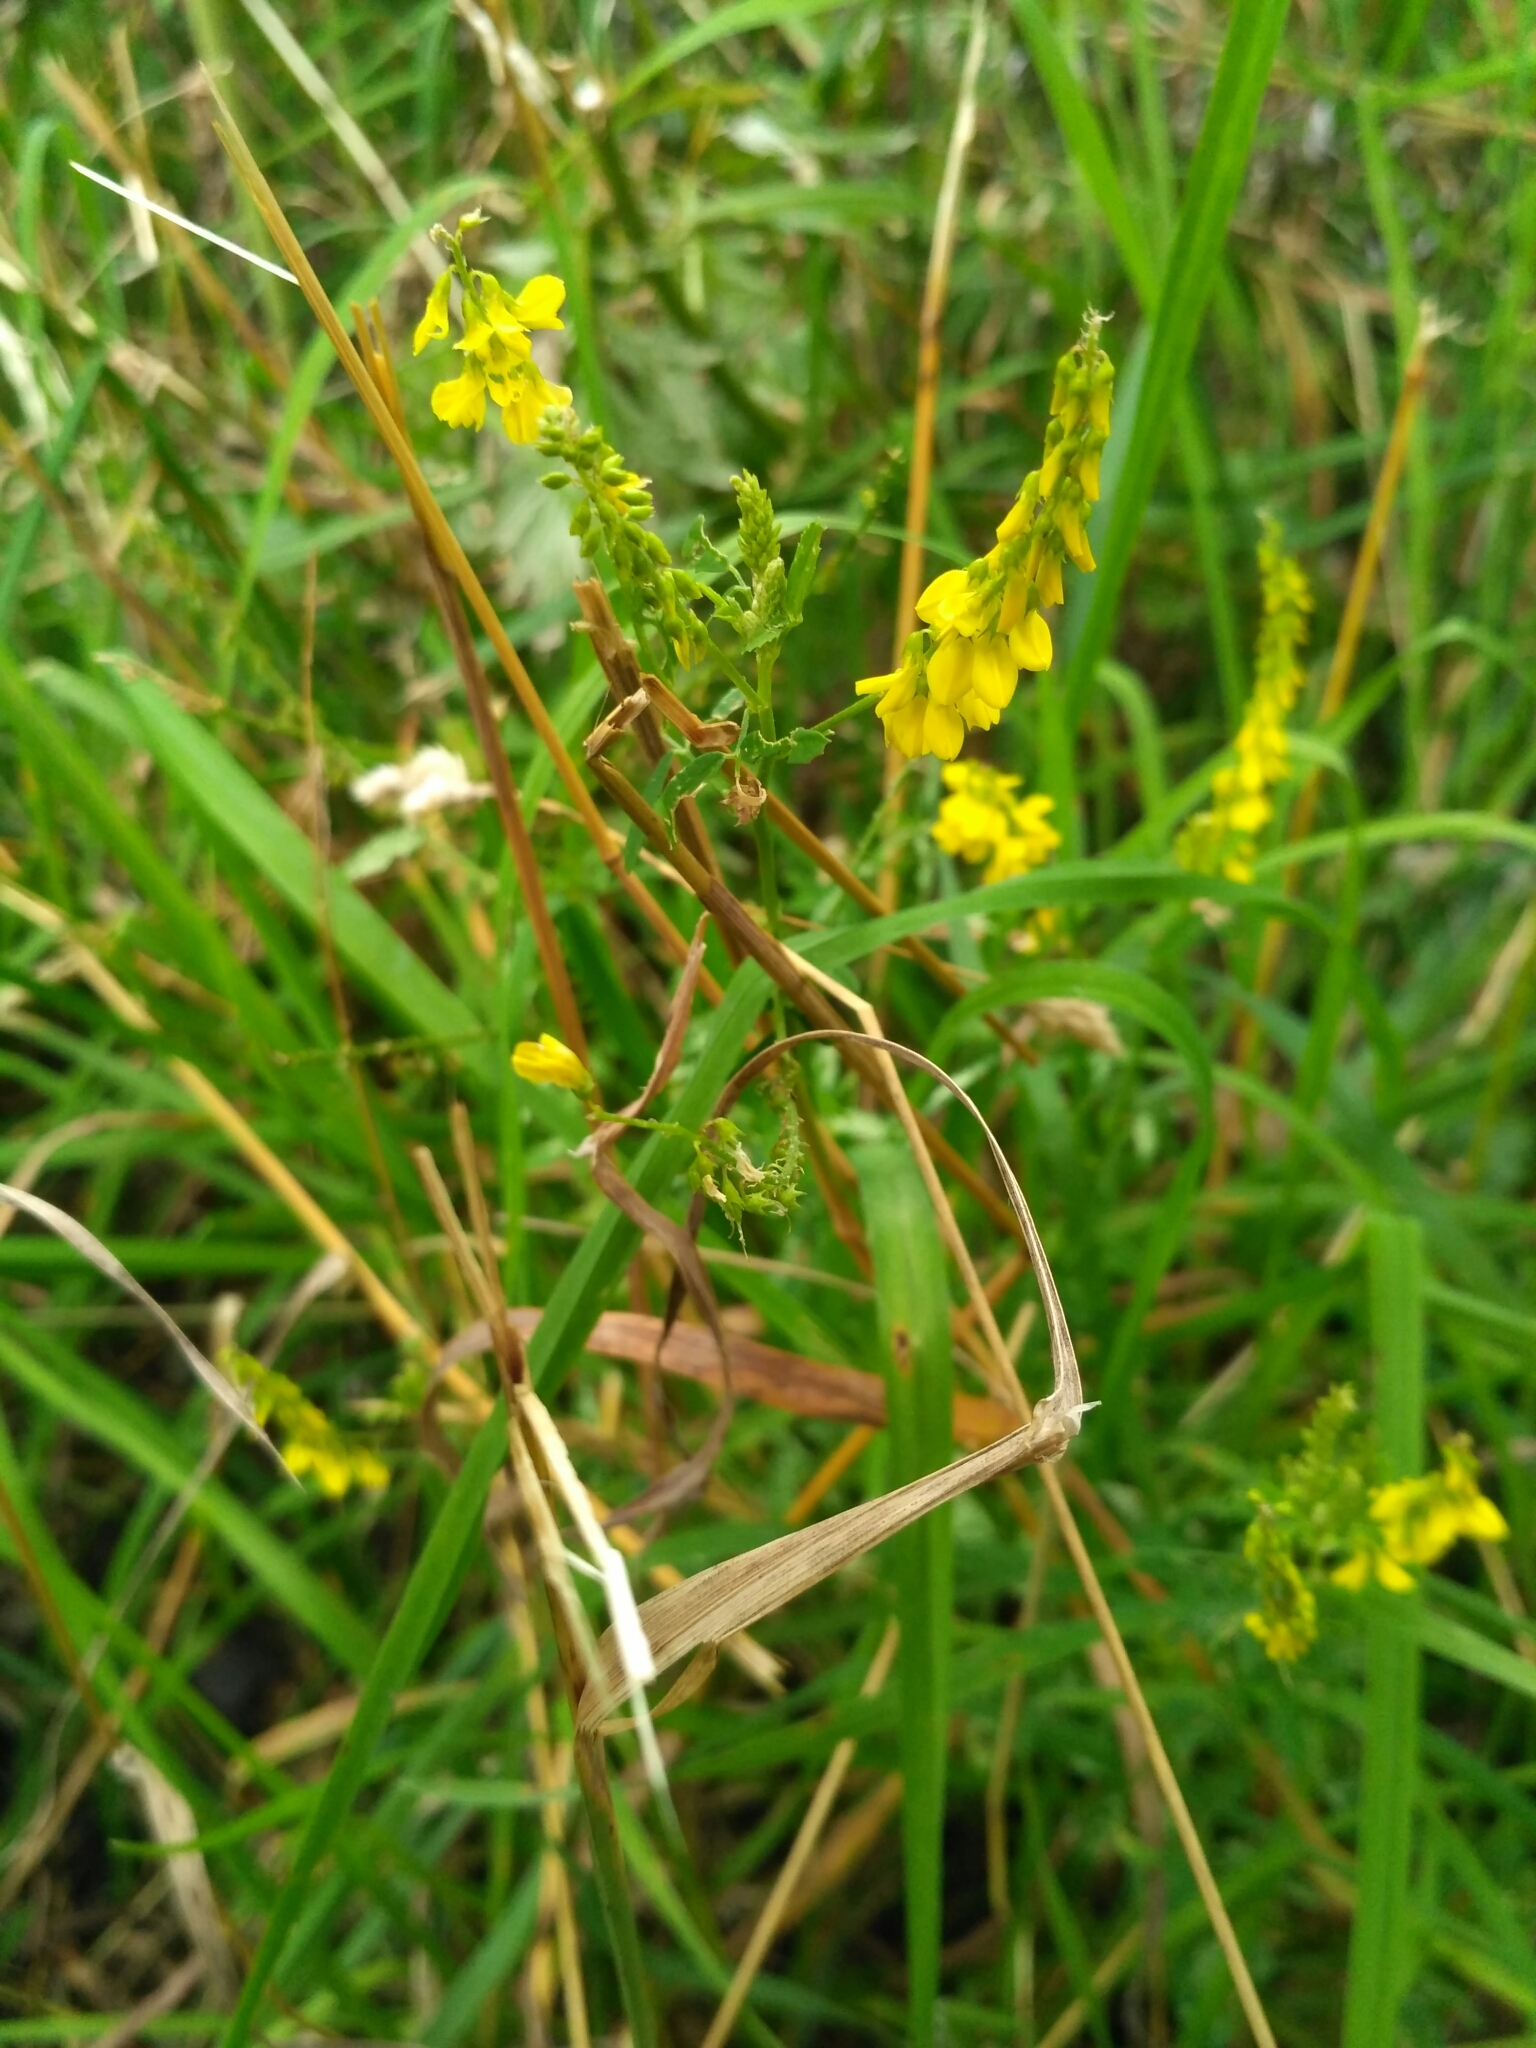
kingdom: Plantae
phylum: Tracheophyta
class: Magnoliopsida
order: Fabales
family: Fabaceae
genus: Melilotus
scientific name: Melilotus officinalis
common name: Sweetclover
